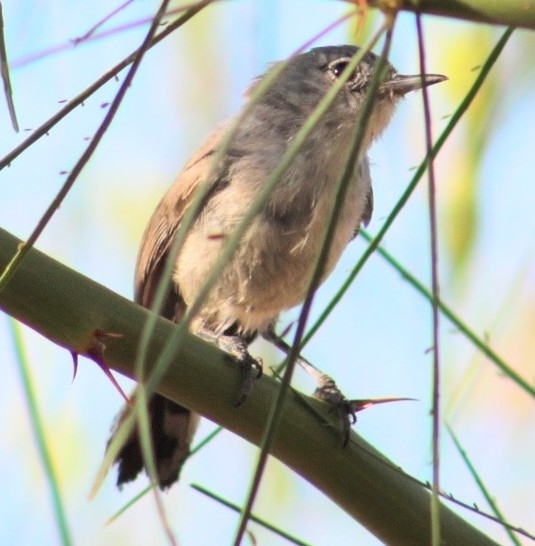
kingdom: Animalia
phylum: Chordata
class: Aves
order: Passeriformes
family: Polioptilidae
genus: Polioptila
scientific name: Polioptila melanura
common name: Black-tailed gnatcatcher
